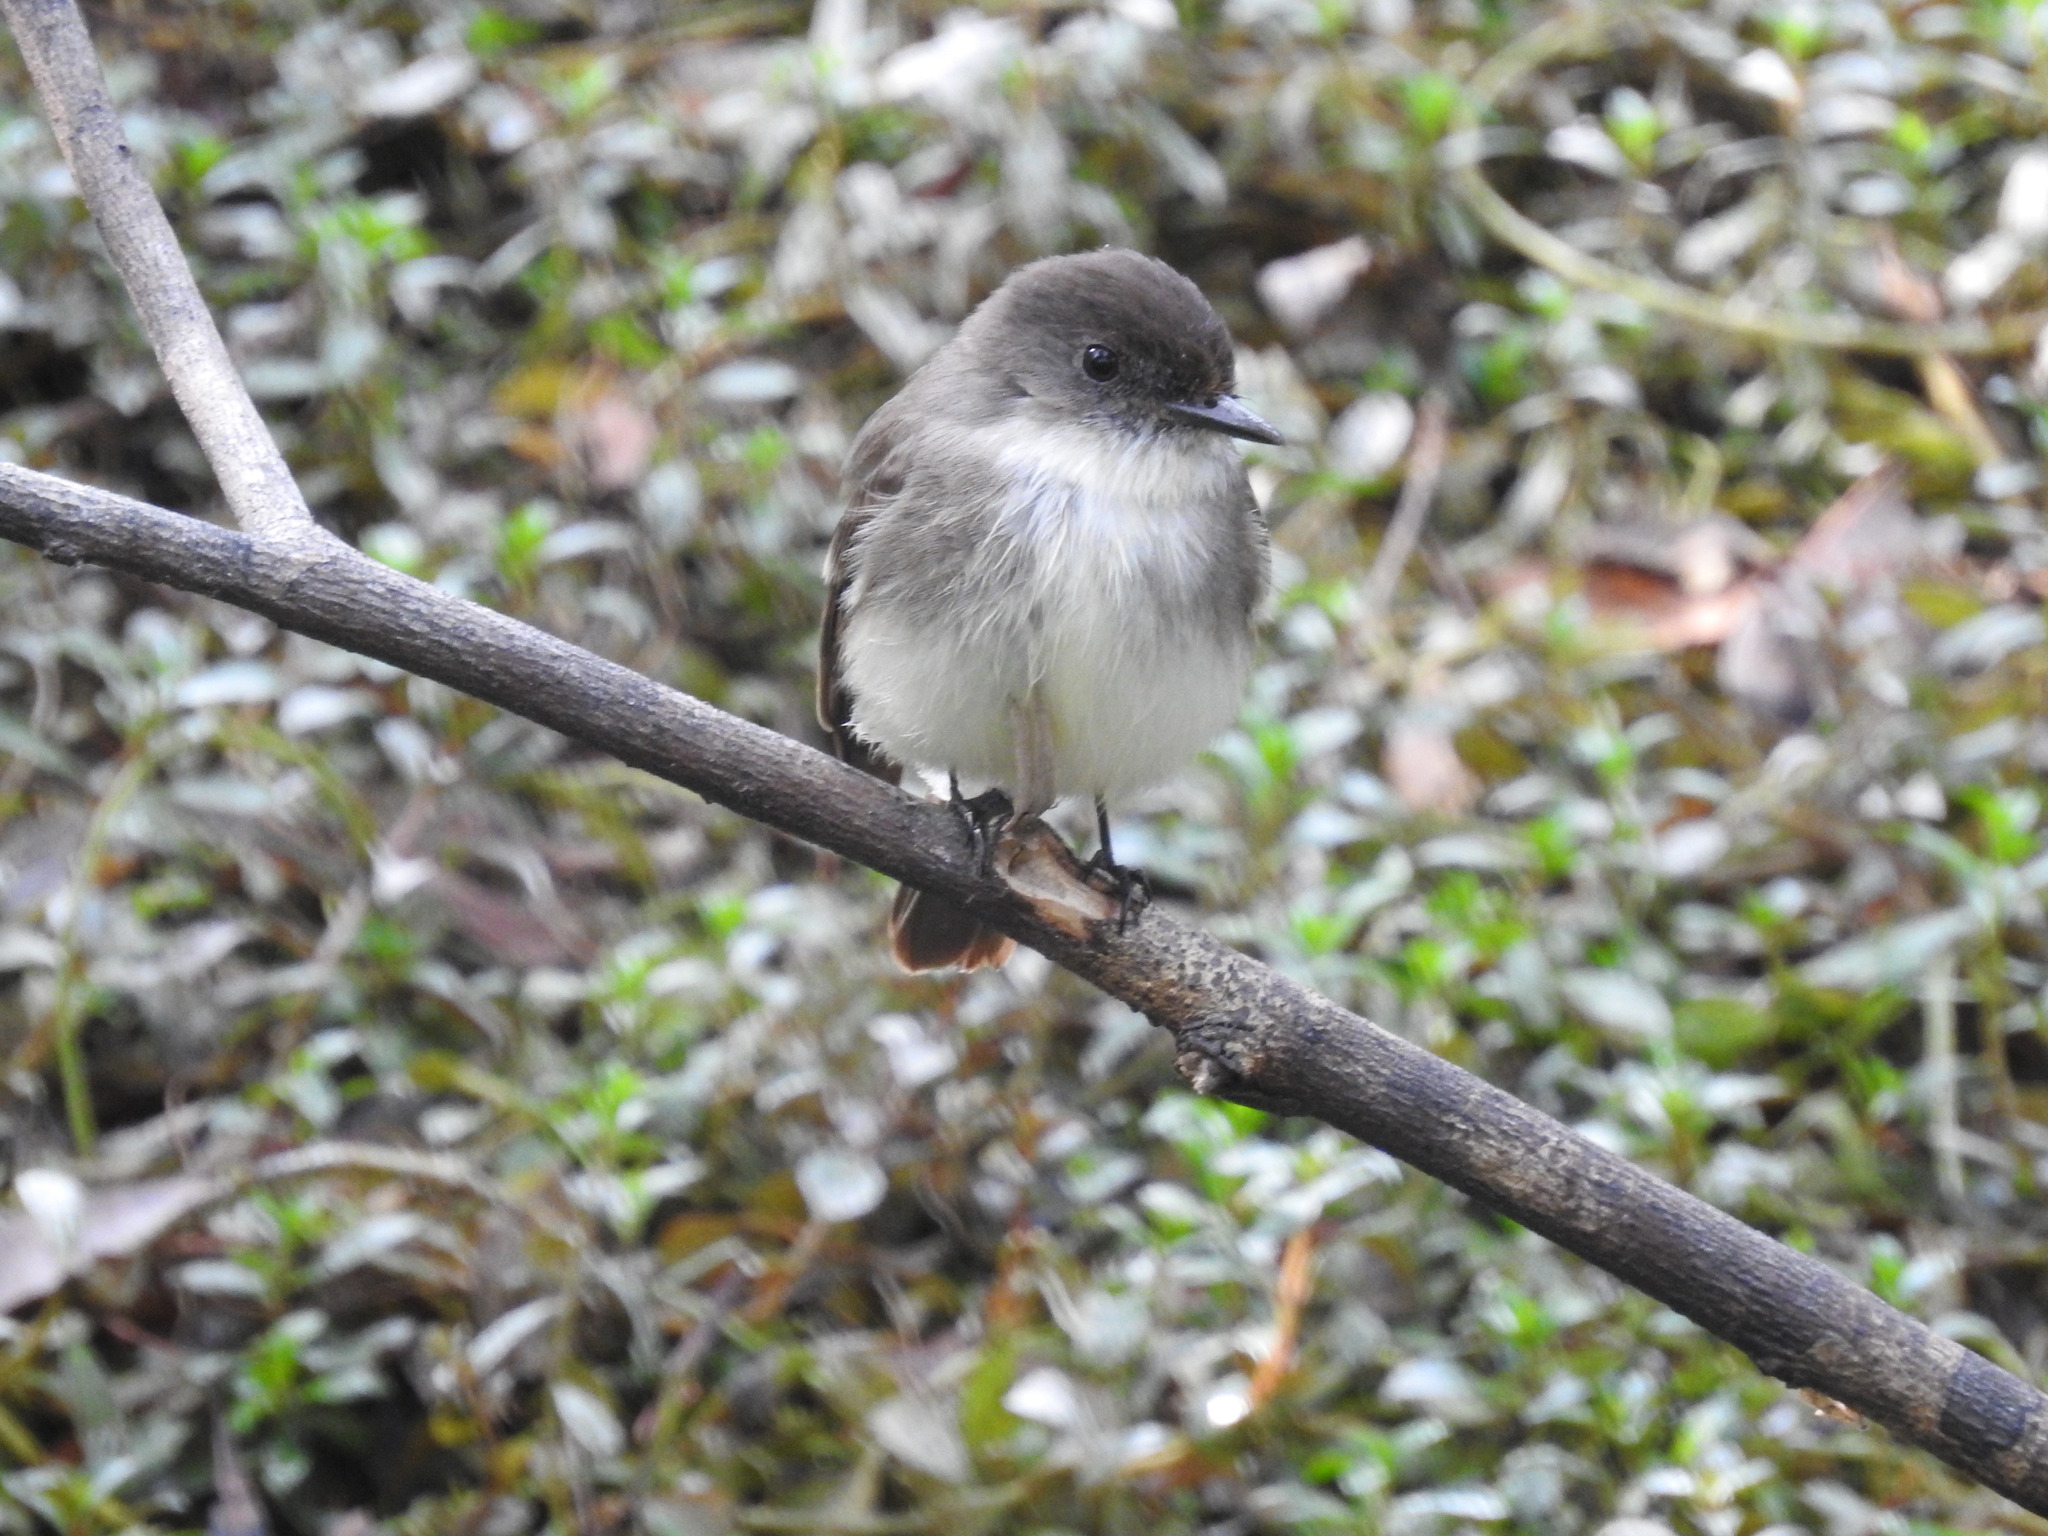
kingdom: Animalia
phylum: Chordata
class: Aves
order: Passeriformes
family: Tyrannidae
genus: Sayornis
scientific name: Sayornis phoebe
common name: Eastern phoebe
